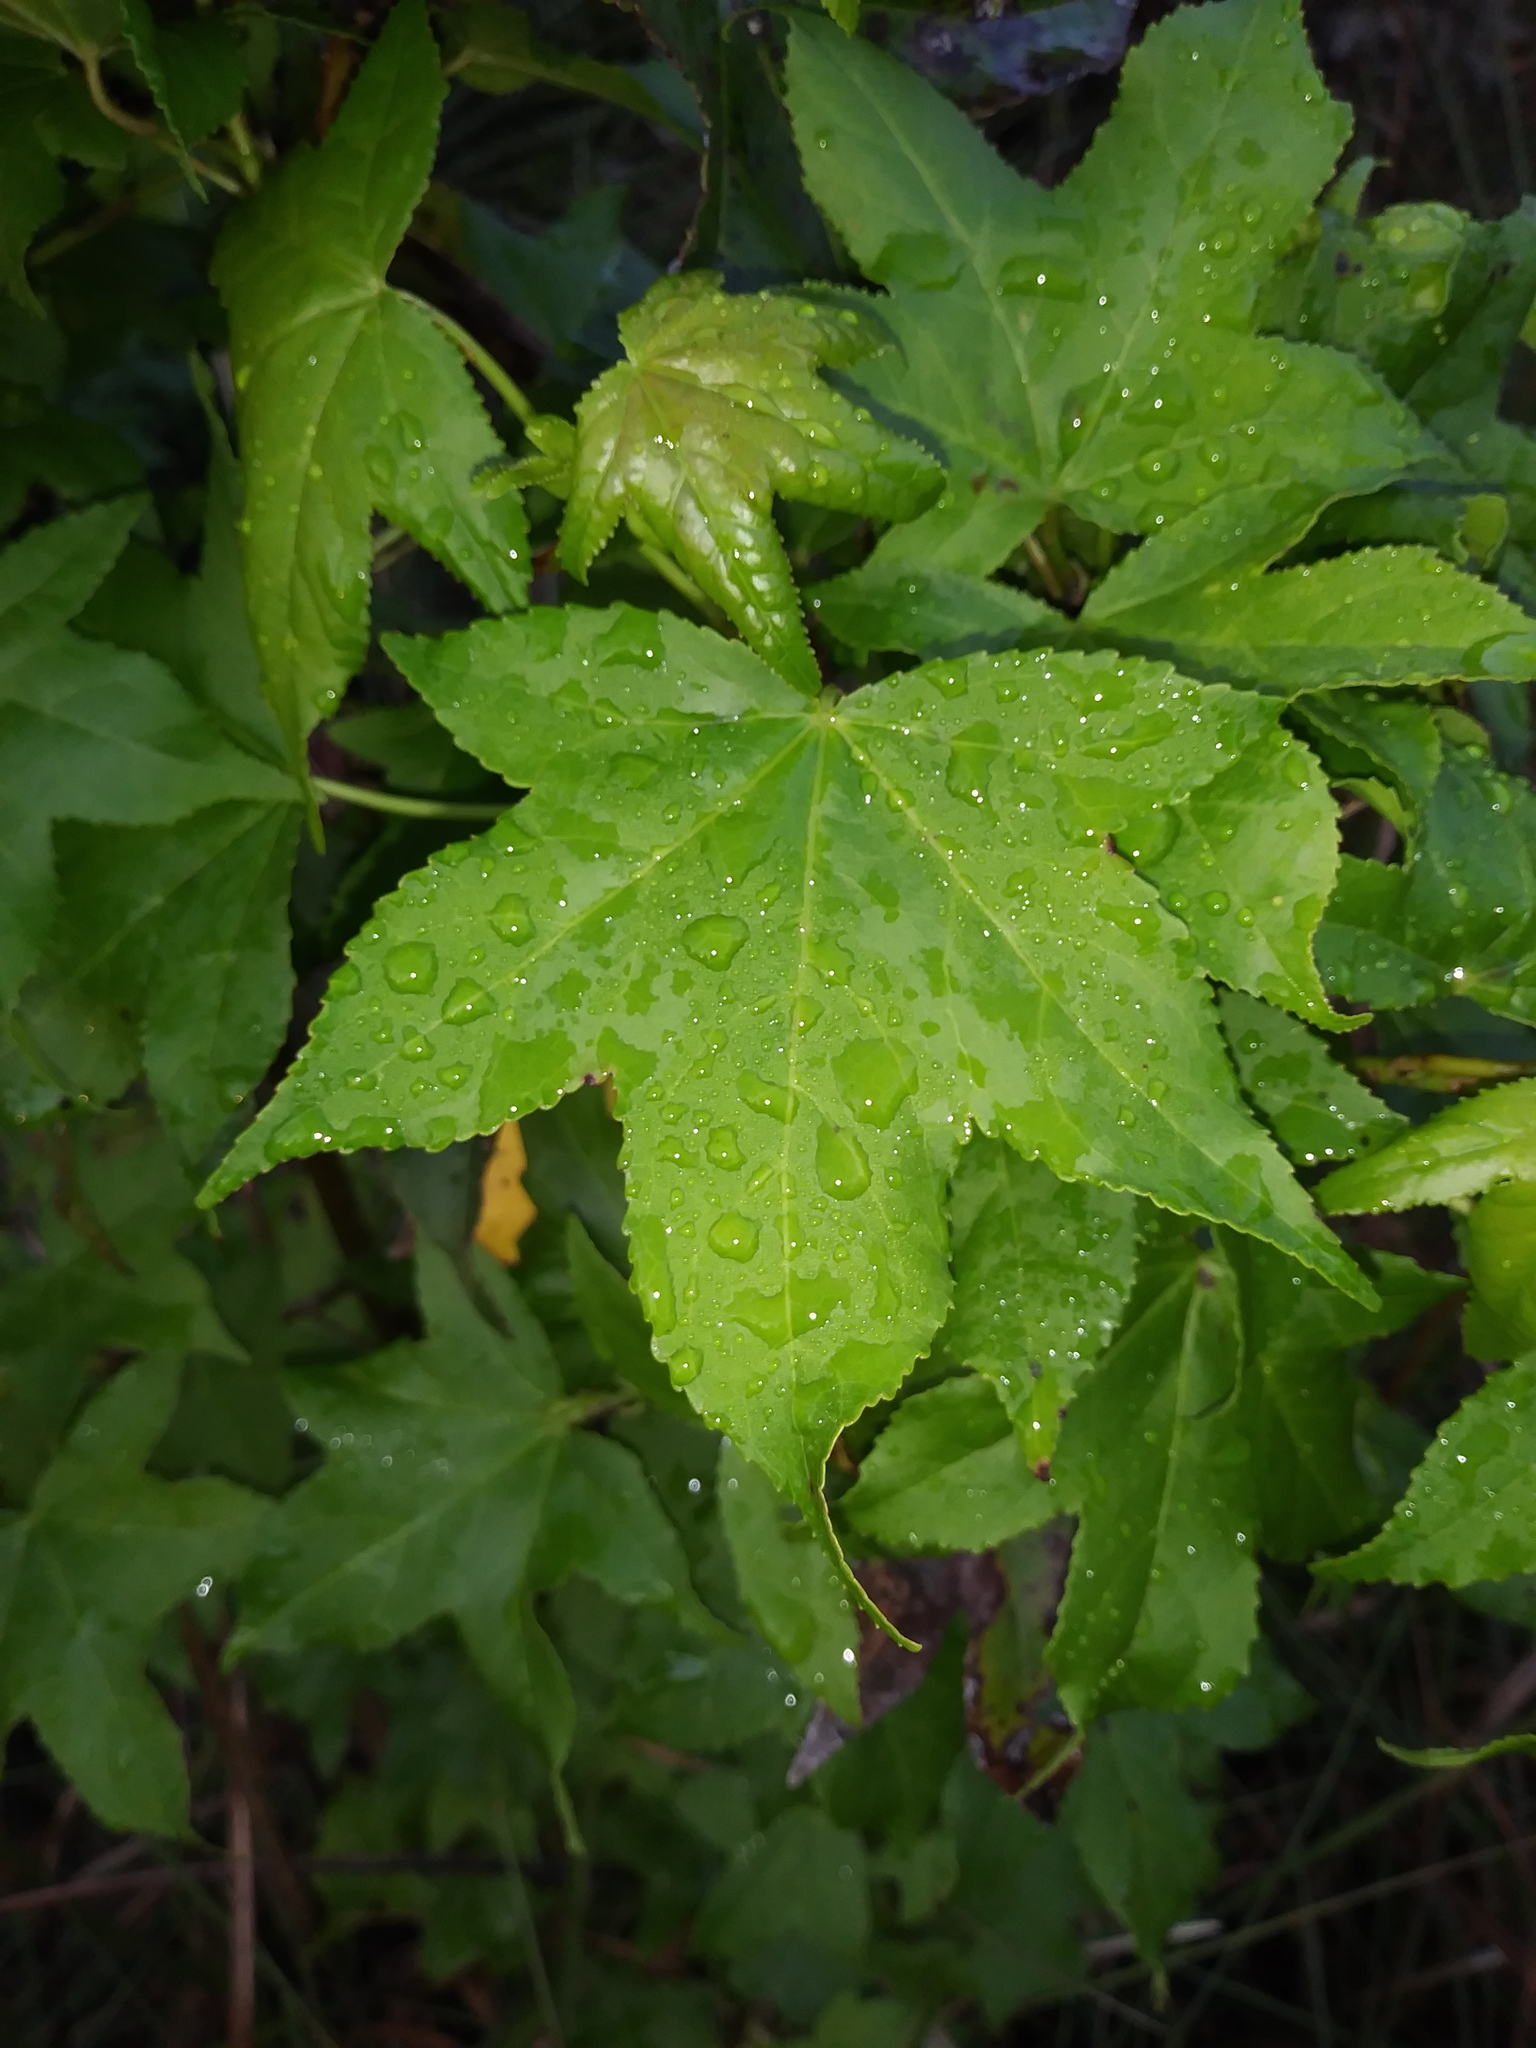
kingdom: Plantae
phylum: Tracheophyta
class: Magnoliopsida
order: Saxifragales
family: Altingiaceae
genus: Liquidambar
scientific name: Liquidambar styraciflua
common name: Sweet gum
